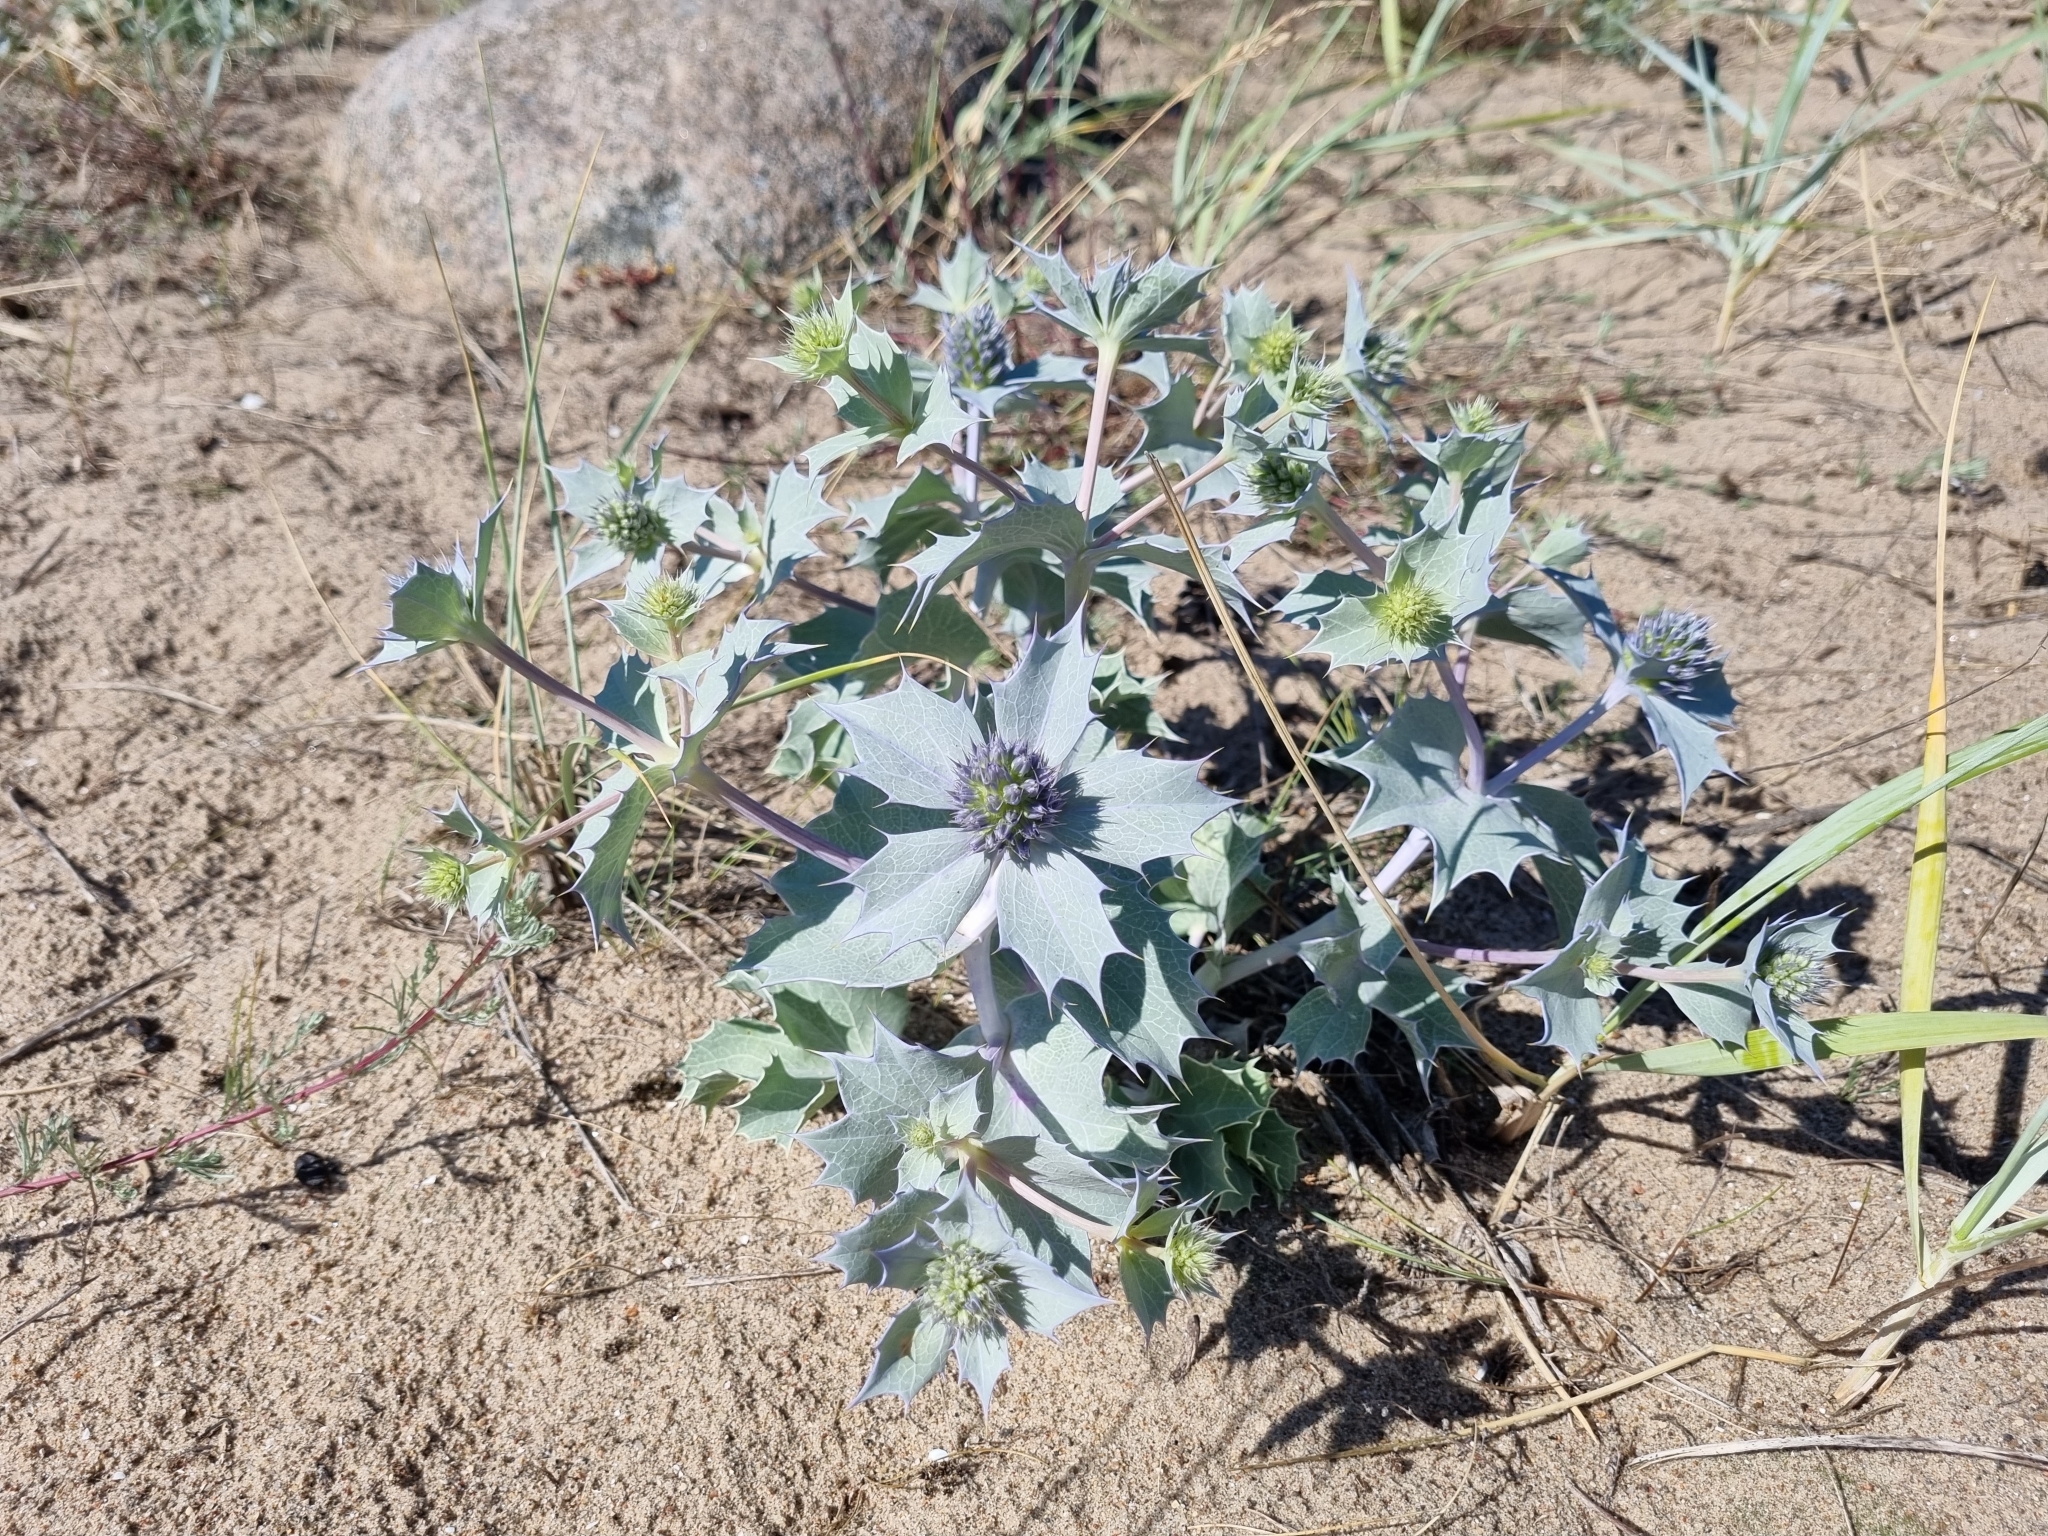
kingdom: Plantae
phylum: Tracheophyta
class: Magnoliopsida
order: Apiales
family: Apiaceae
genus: Eryngium
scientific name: Eryngium maritimum
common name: Sea-holly
